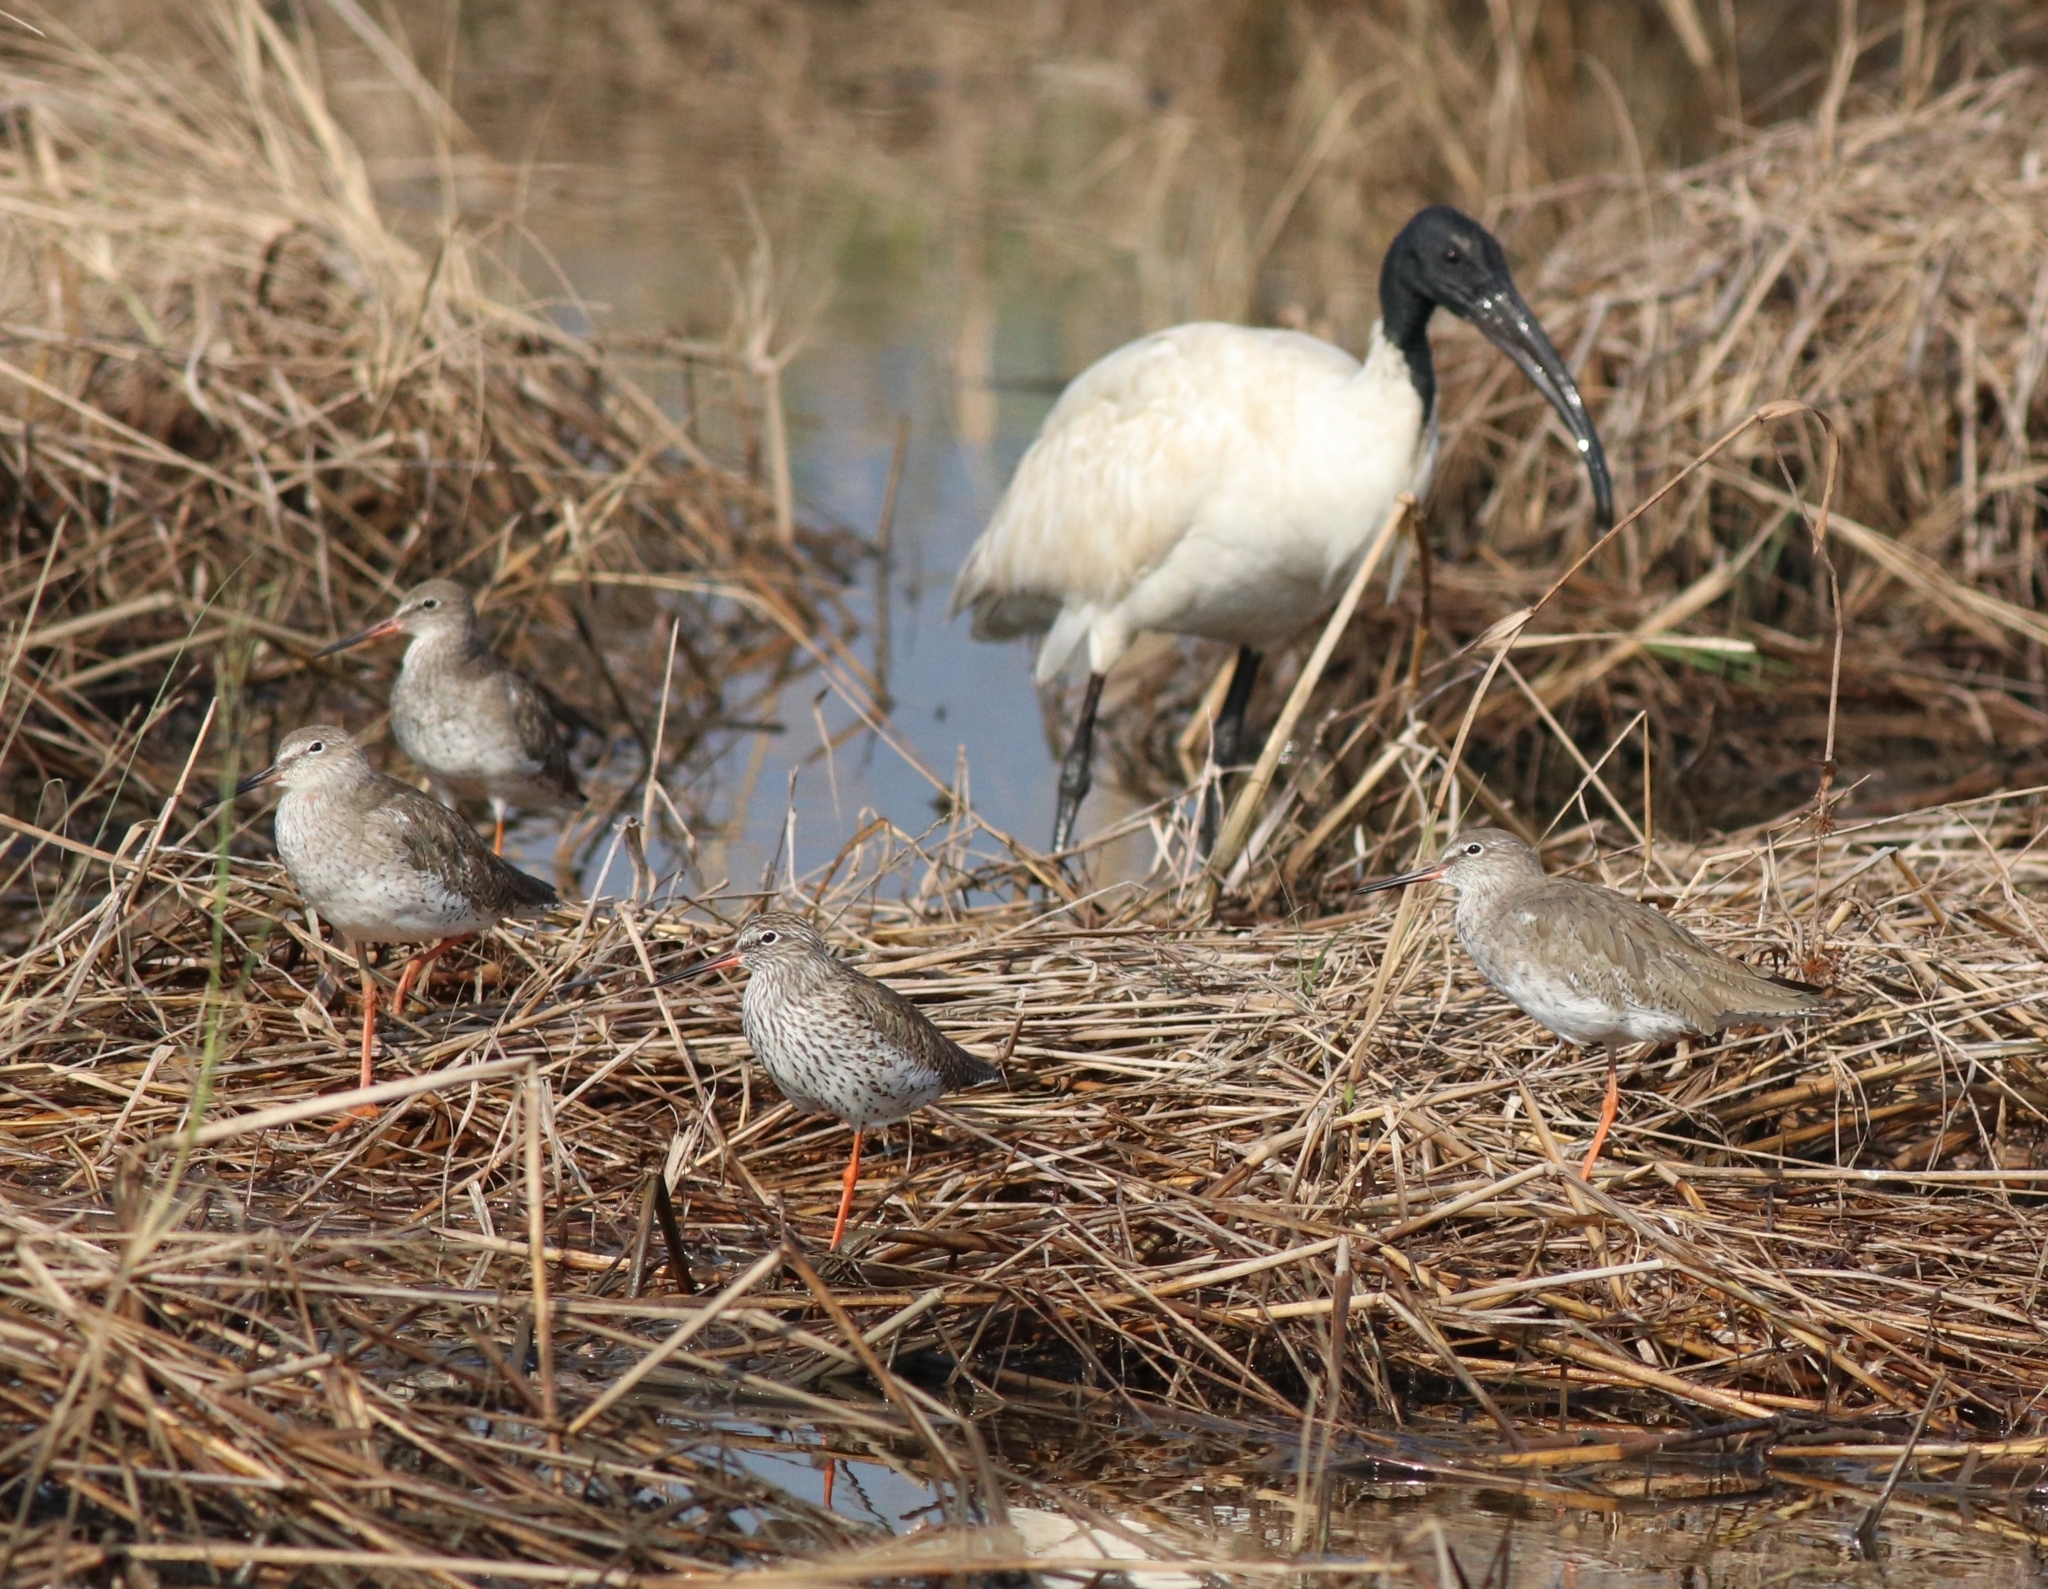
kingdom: Animalia
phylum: Chordata
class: Aves
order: Charadriiformes
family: Scolopacidae
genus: Tringa
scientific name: Tringa totanus
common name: Common redshank
